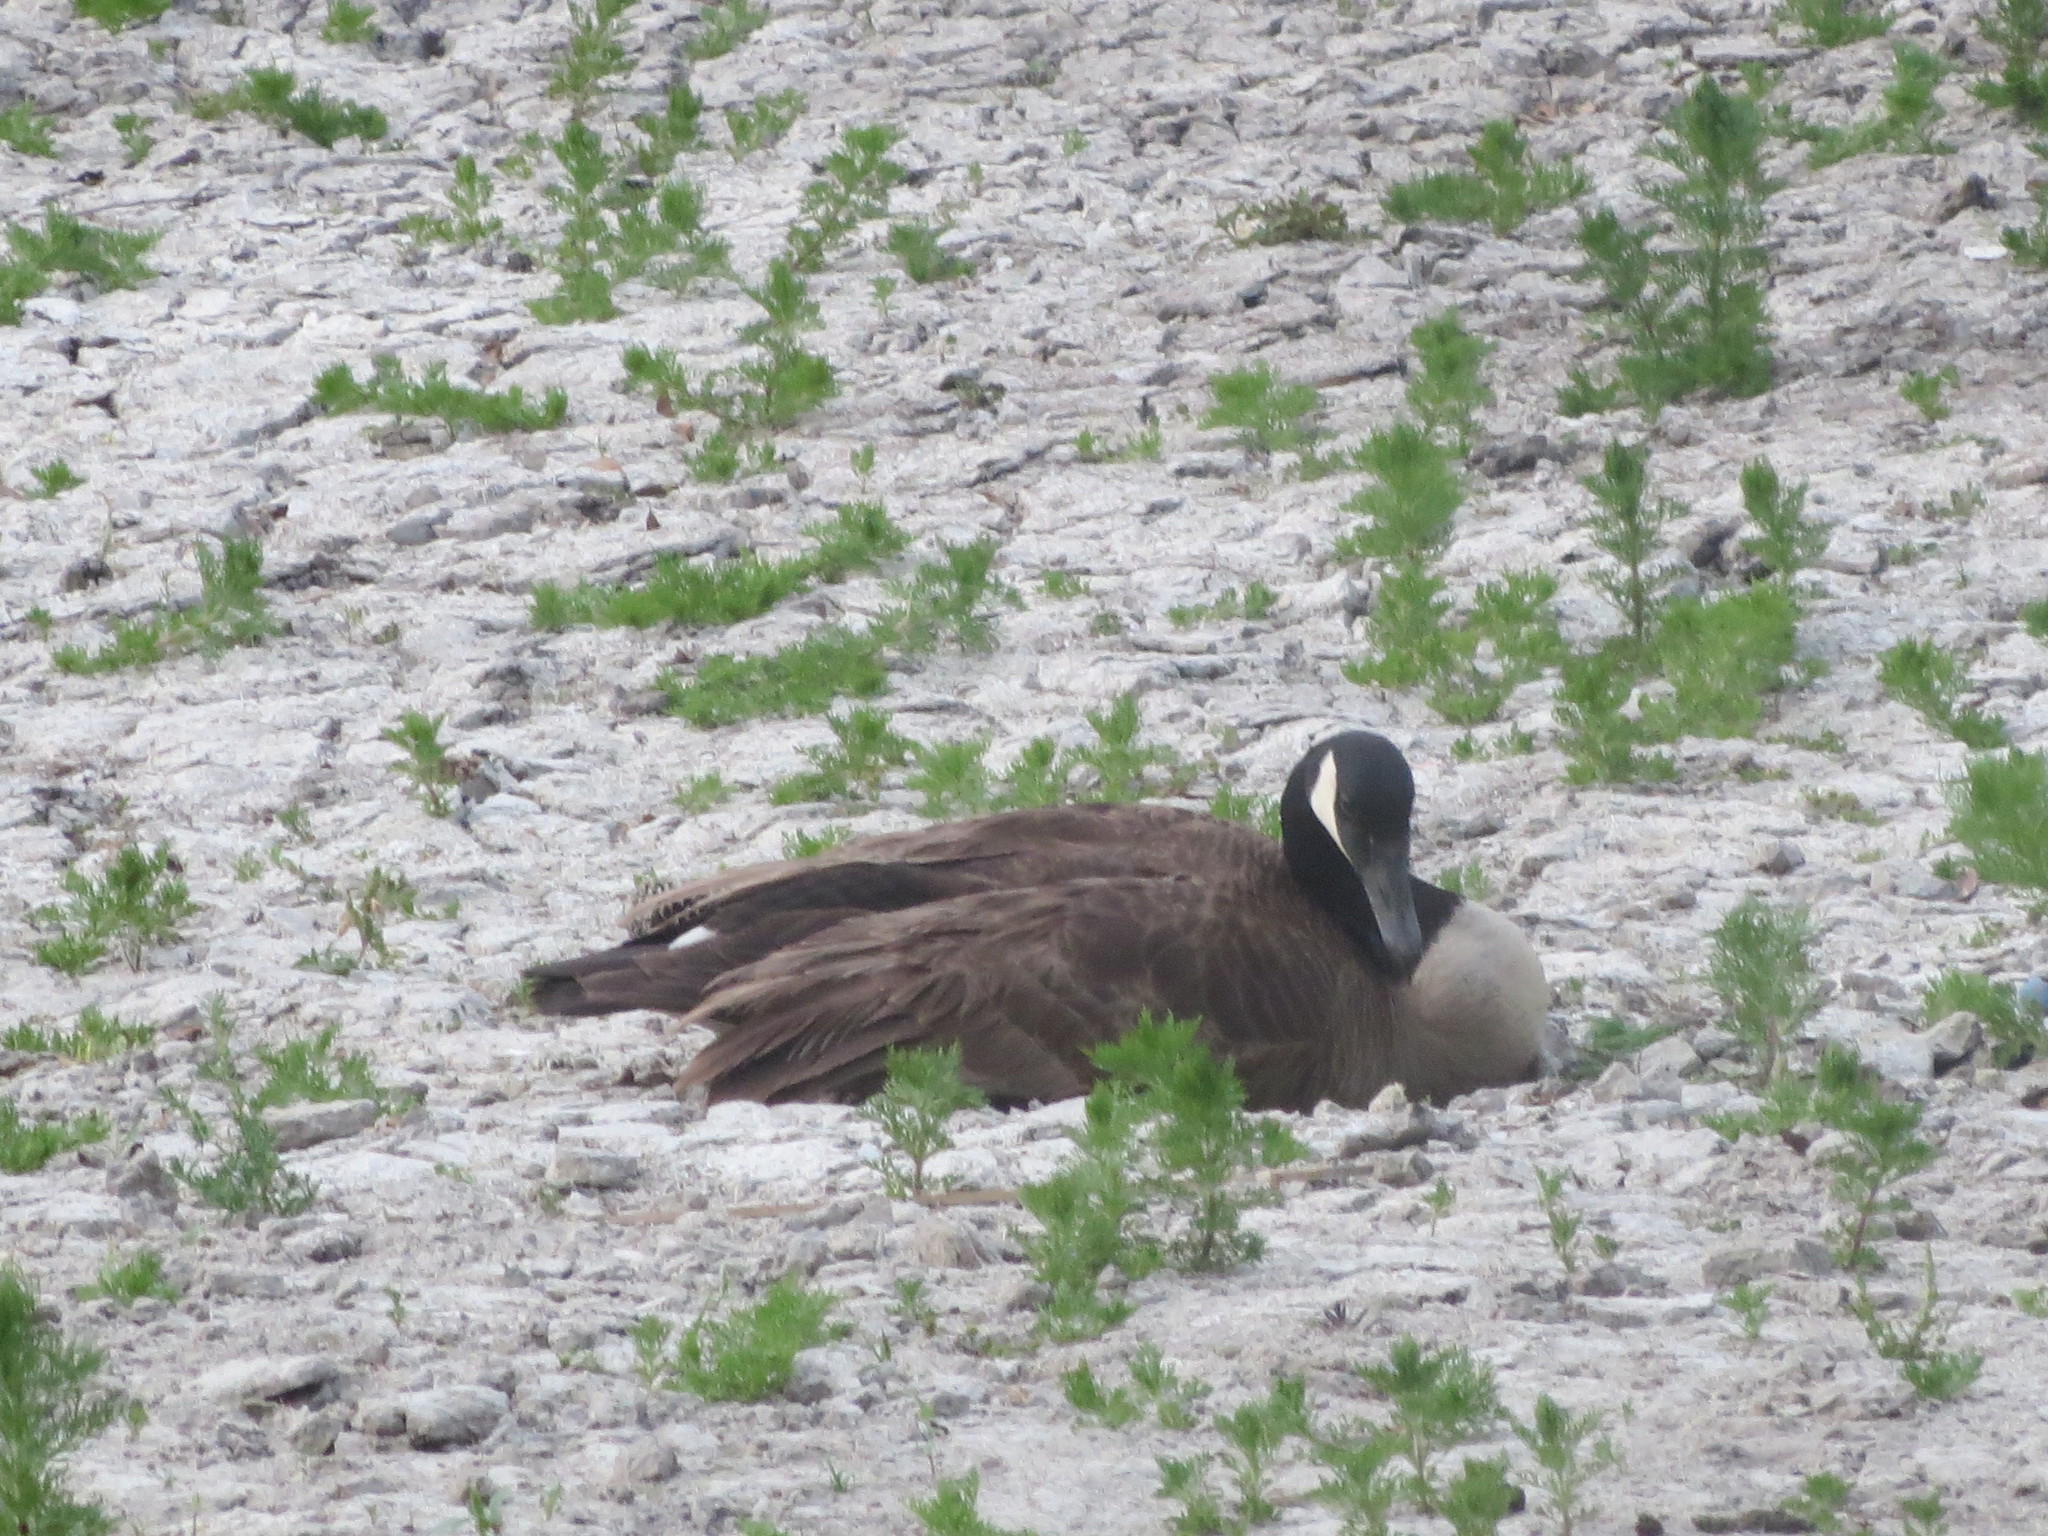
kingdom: Animalia
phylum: Chordata
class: Aves
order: Anseriformes
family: Anatidae
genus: Branta
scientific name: Branta canadensis
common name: Canada goose
